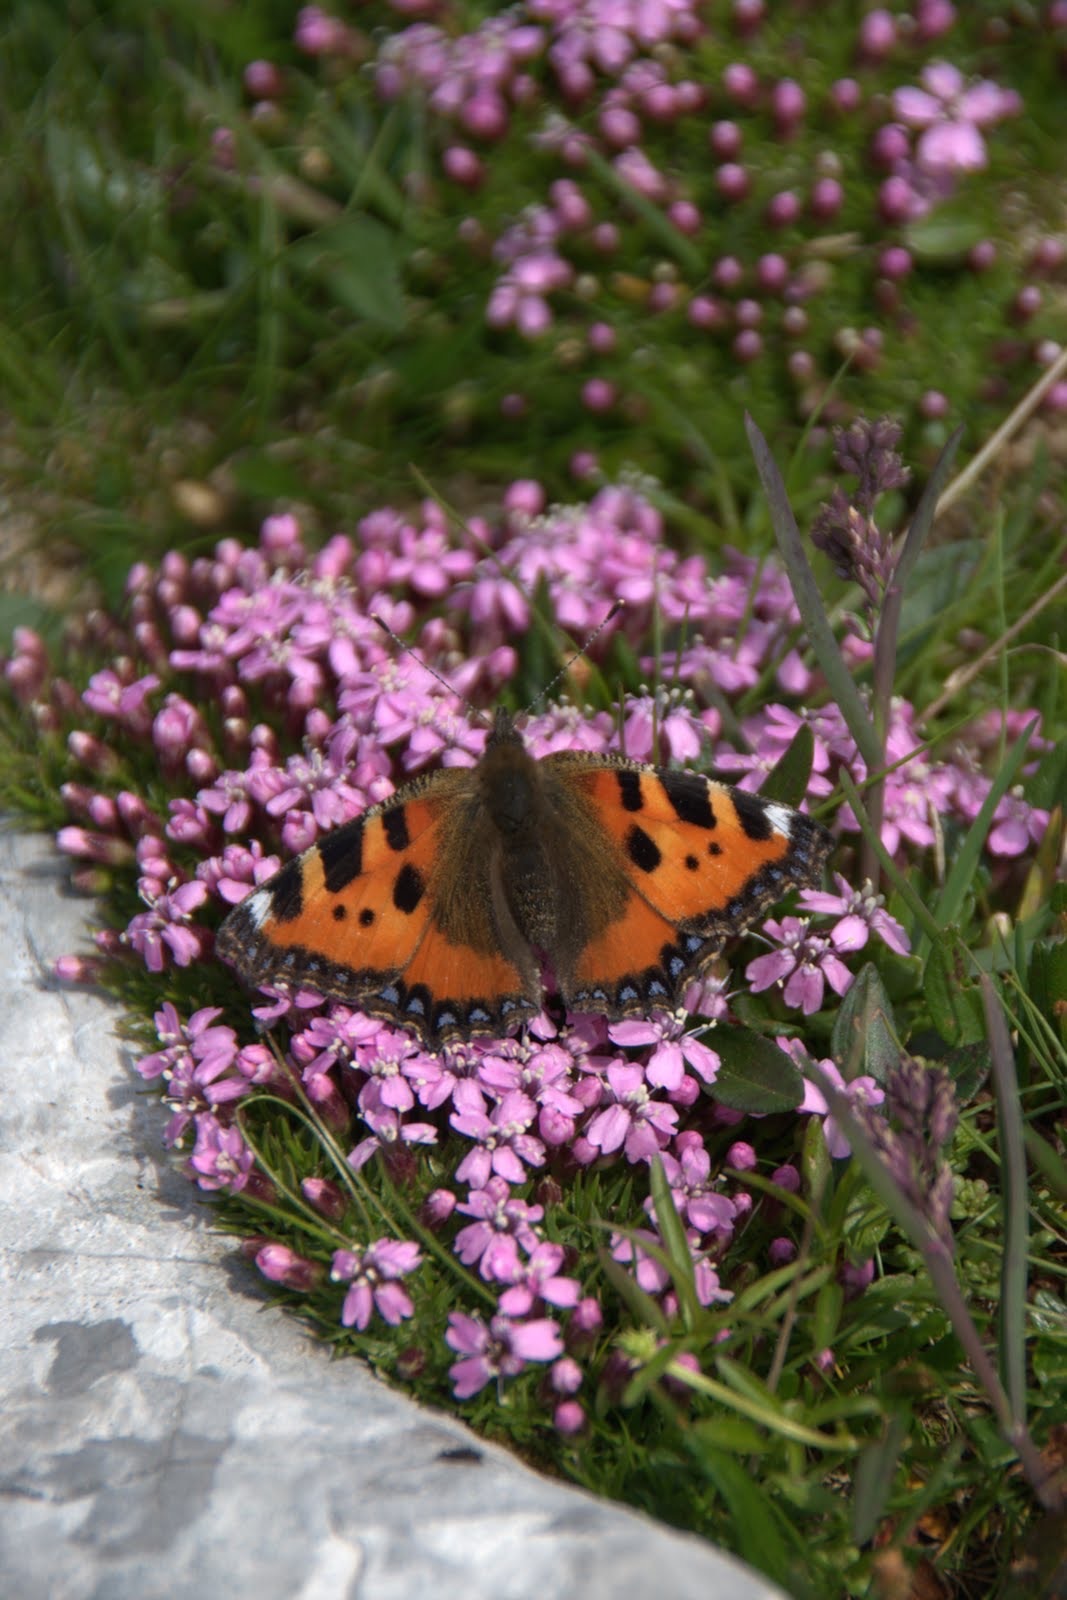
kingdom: Animalia
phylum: Arthropoda
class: Insecta
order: Lepidoptera
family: Nymphalidae
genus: Aglais
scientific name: Aglais urticae
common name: Small tortoiseshell
